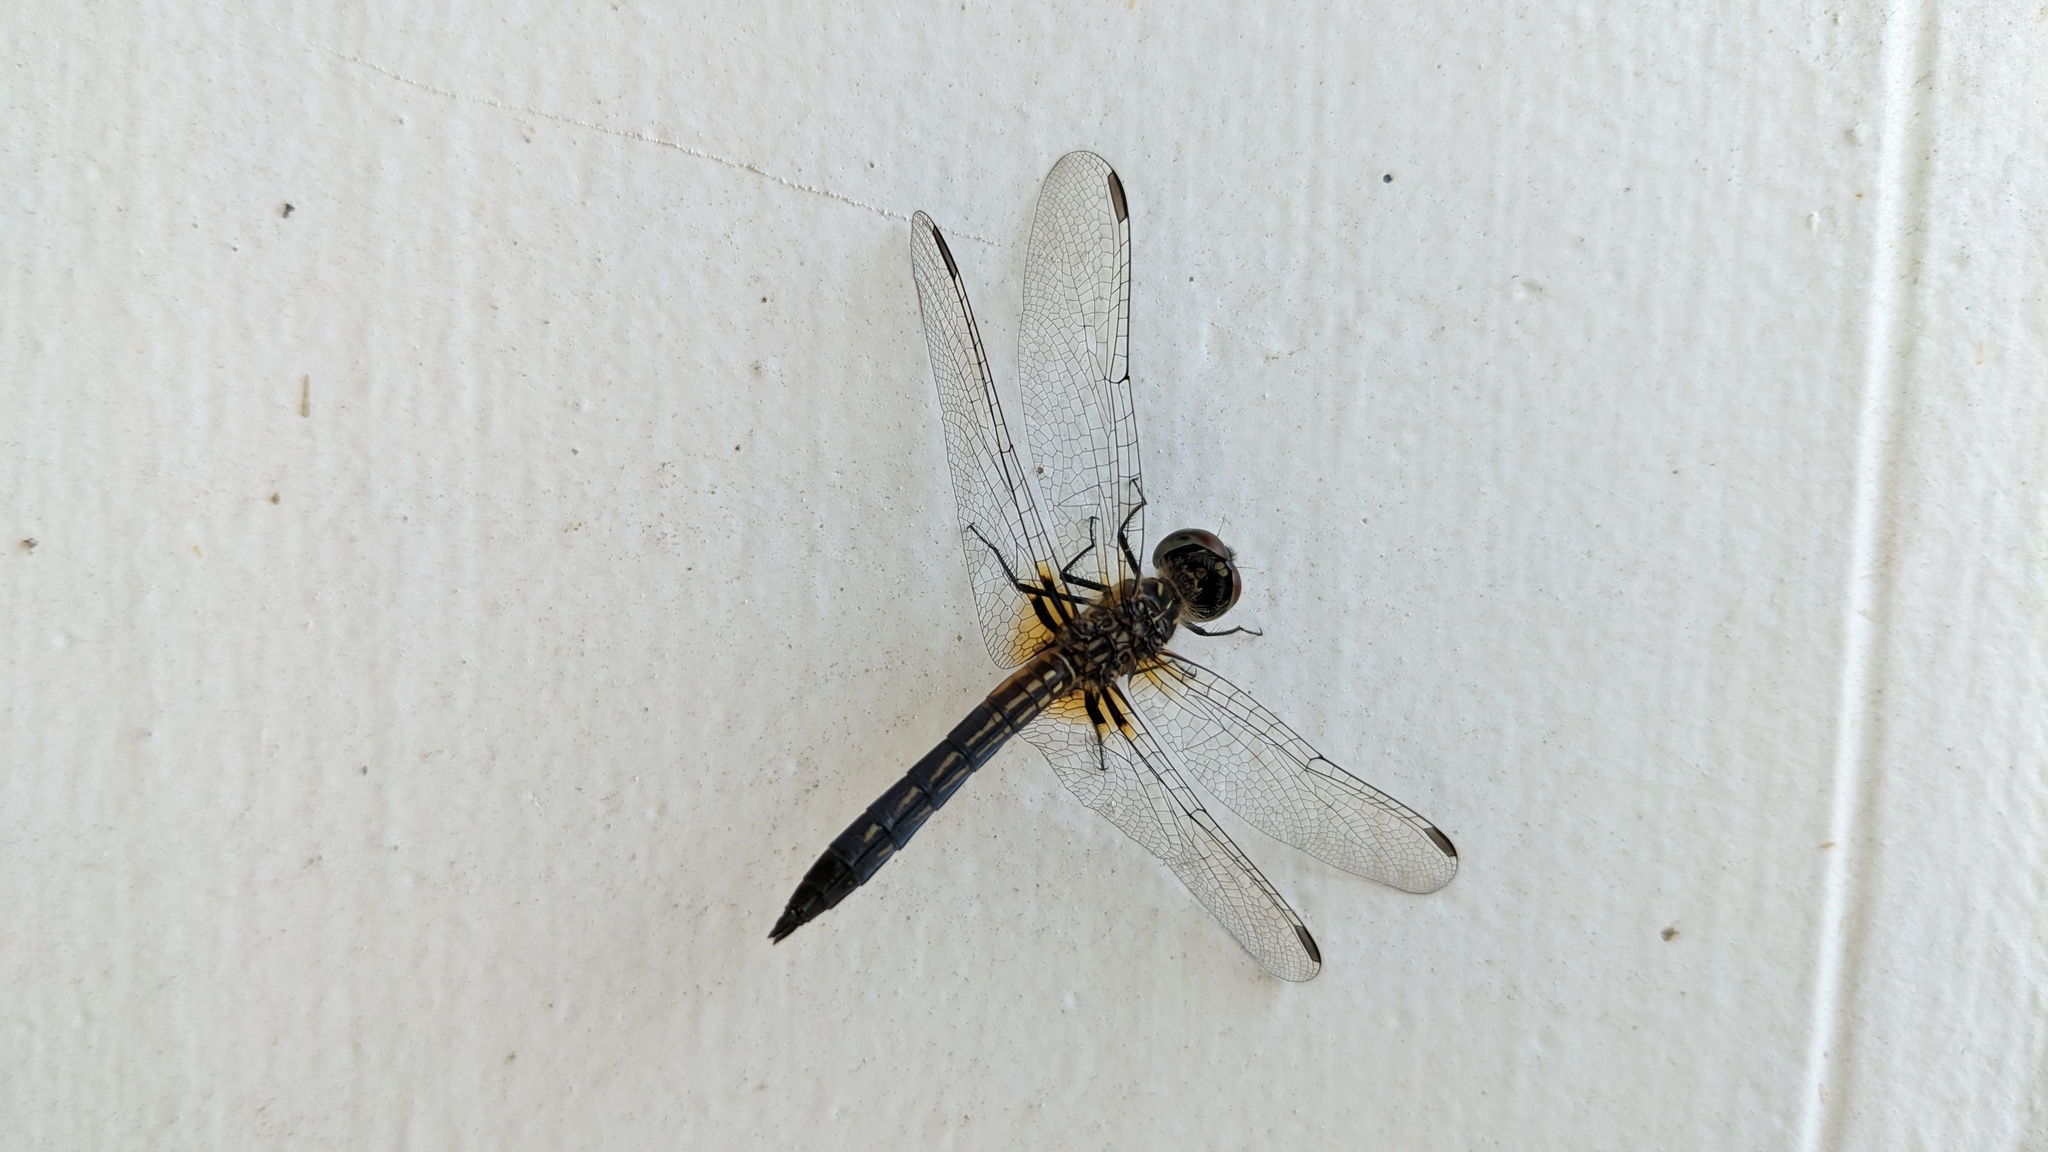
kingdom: Animalia
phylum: Arthropoda
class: Insecta
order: Odonata
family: Libellulidae
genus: Pachydiplax
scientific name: Pachydiplax longipennis
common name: Blue dasher
